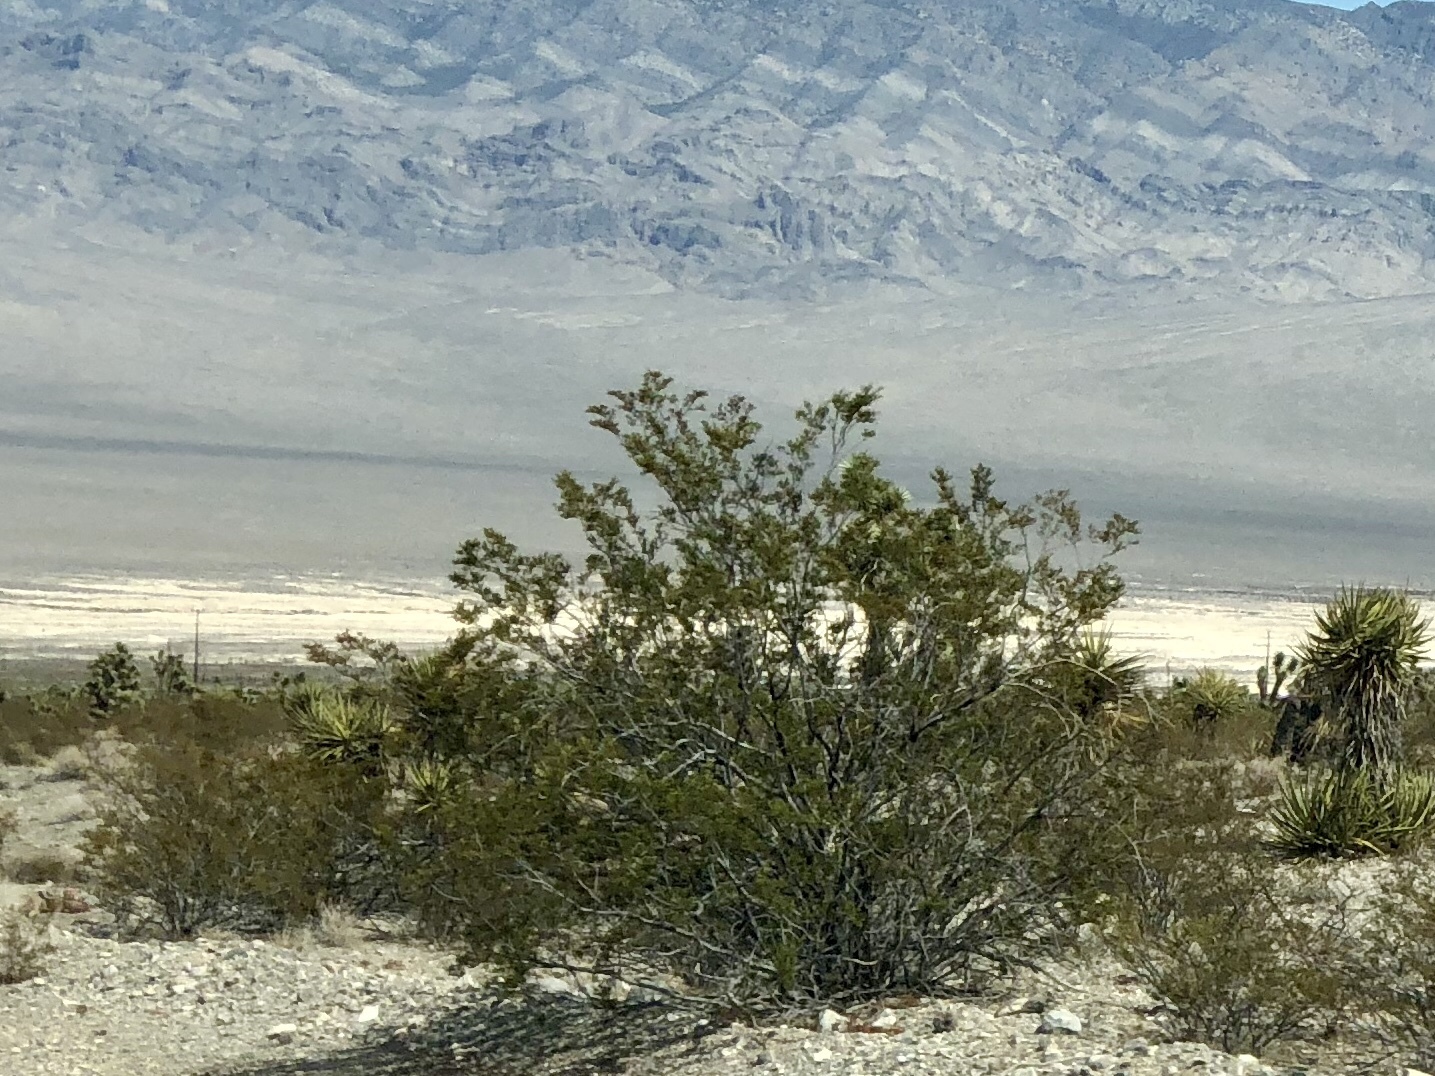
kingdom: Plantae
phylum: Tracheophyta
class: Magnoliopsida
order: Zygophyllales
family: Zygophyllaceae
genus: Larrea
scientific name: Larrea tridentata
